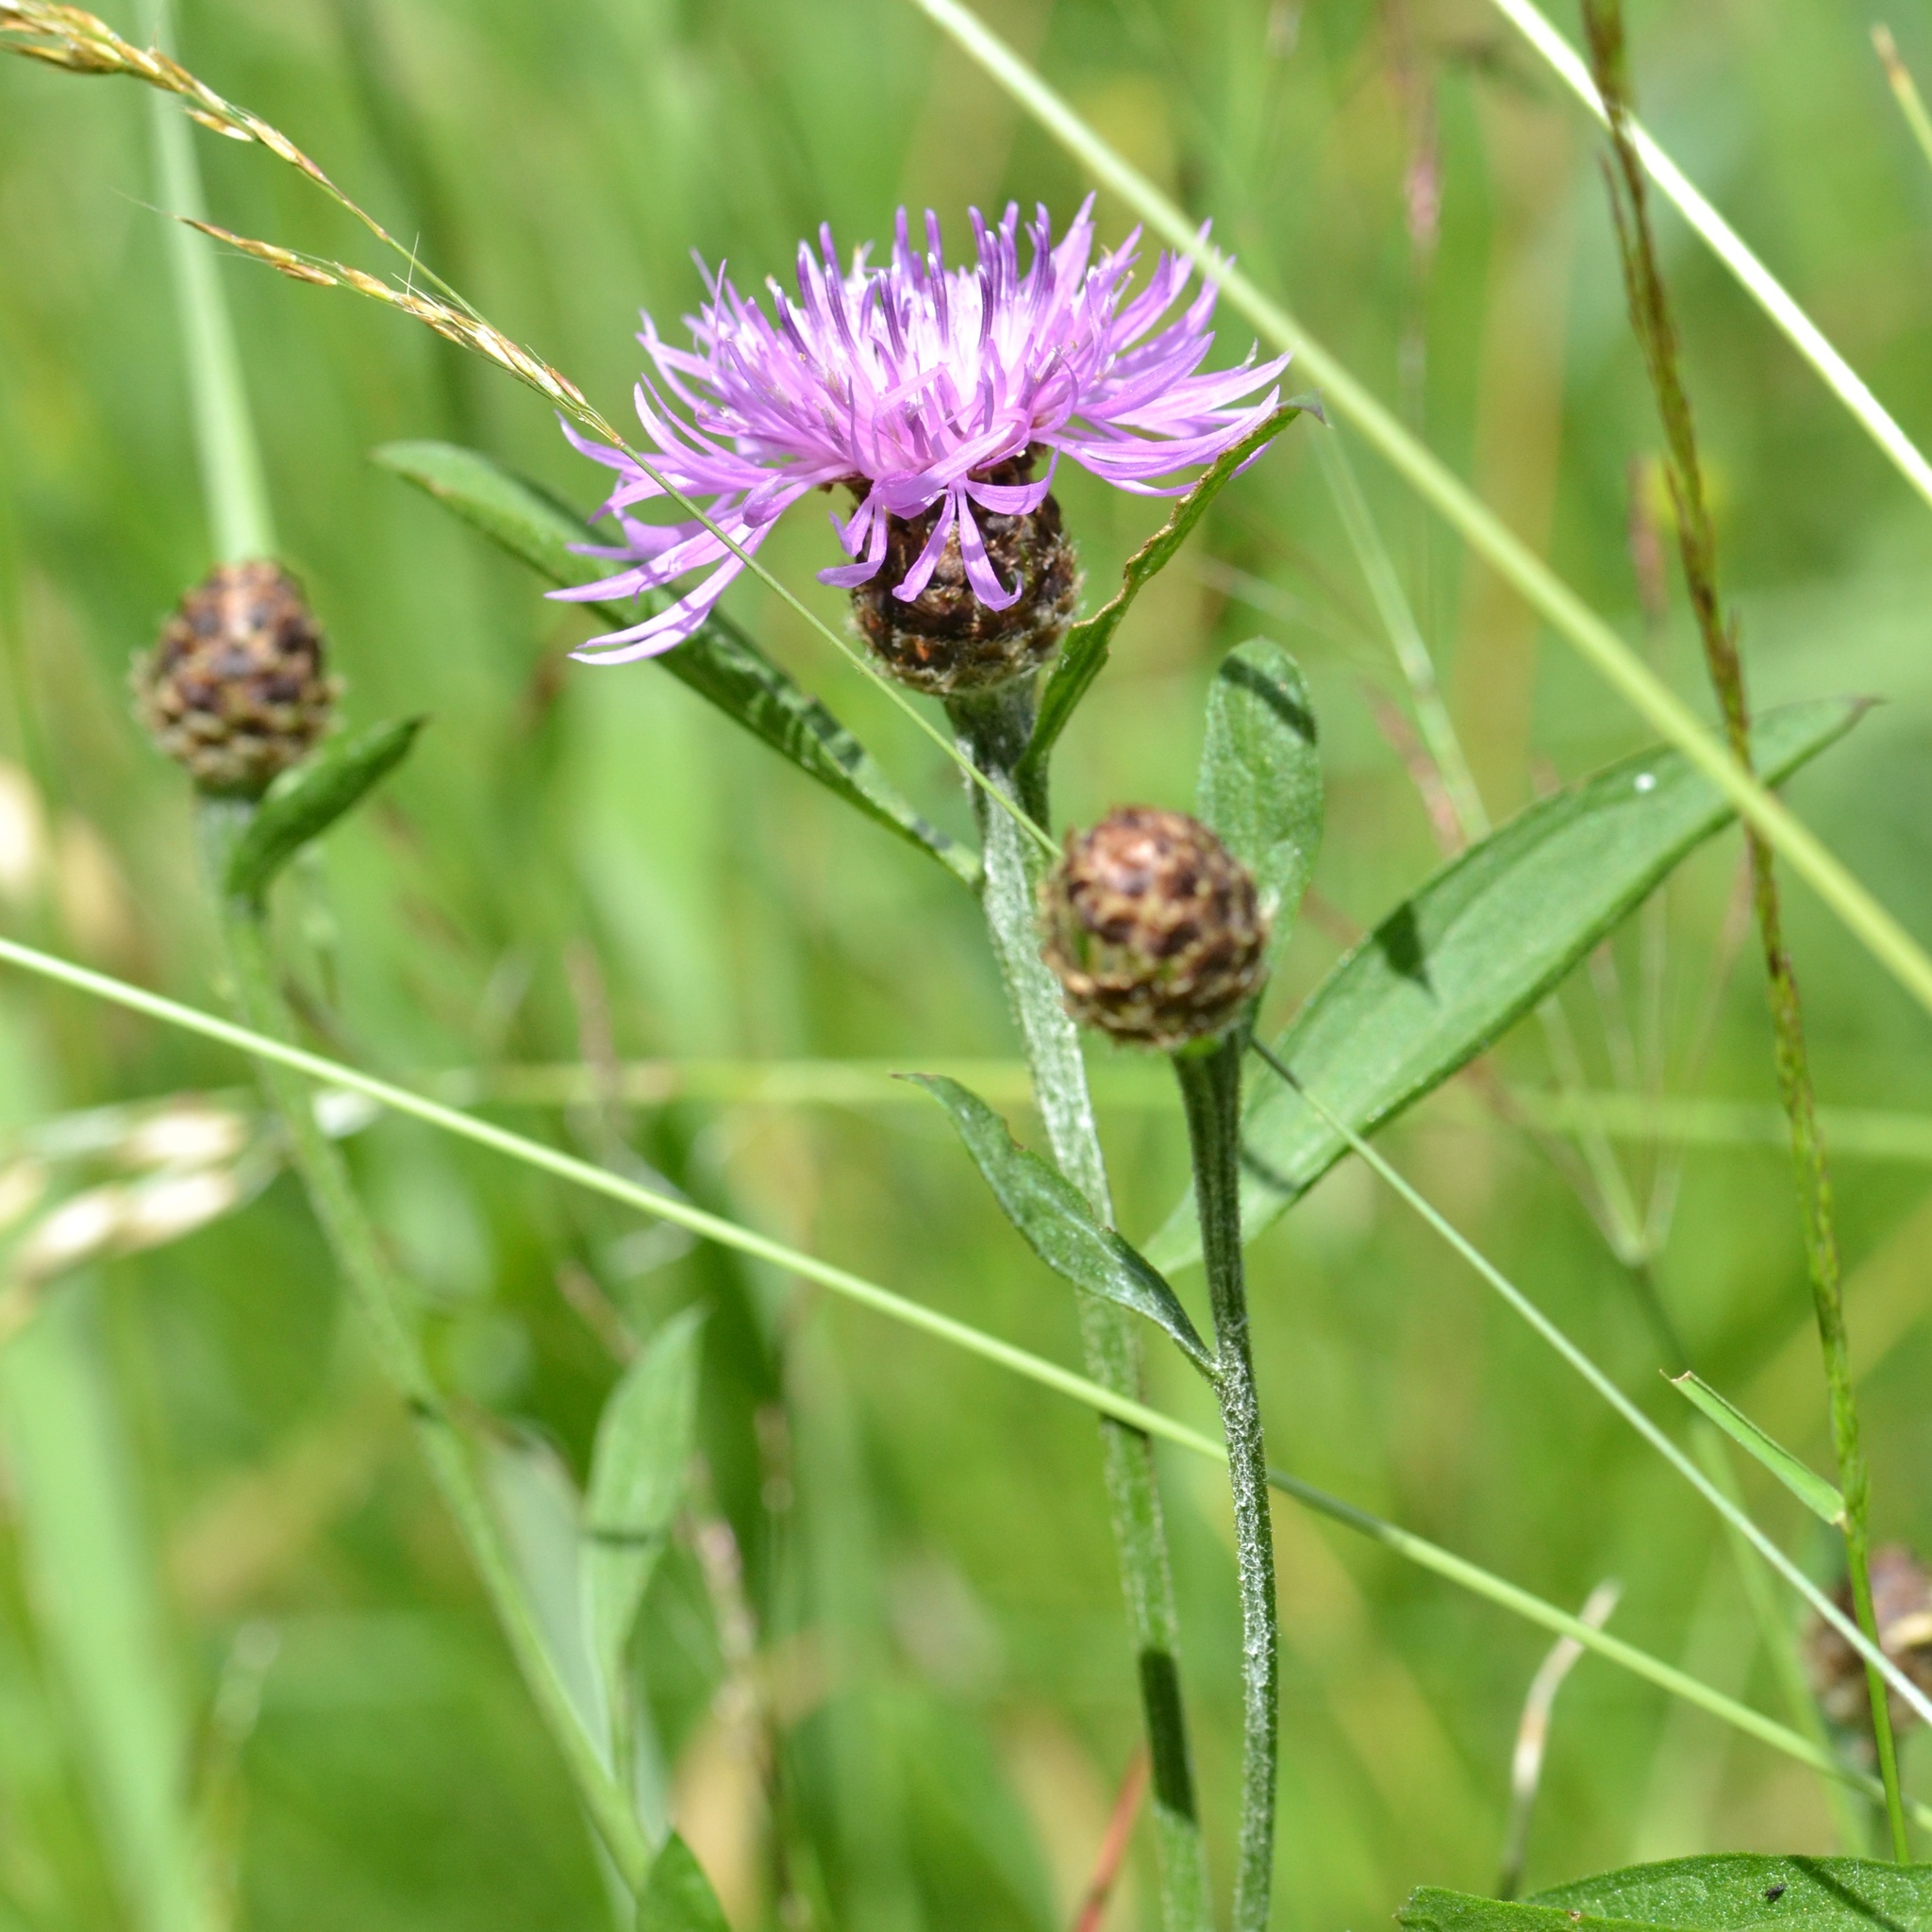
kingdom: Plantae
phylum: Tracheophyta
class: Magnoliopsida
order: Asterales
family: Asteraceae
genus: Centaurea
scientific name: Centaurea jacea
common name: Brown knapweed
